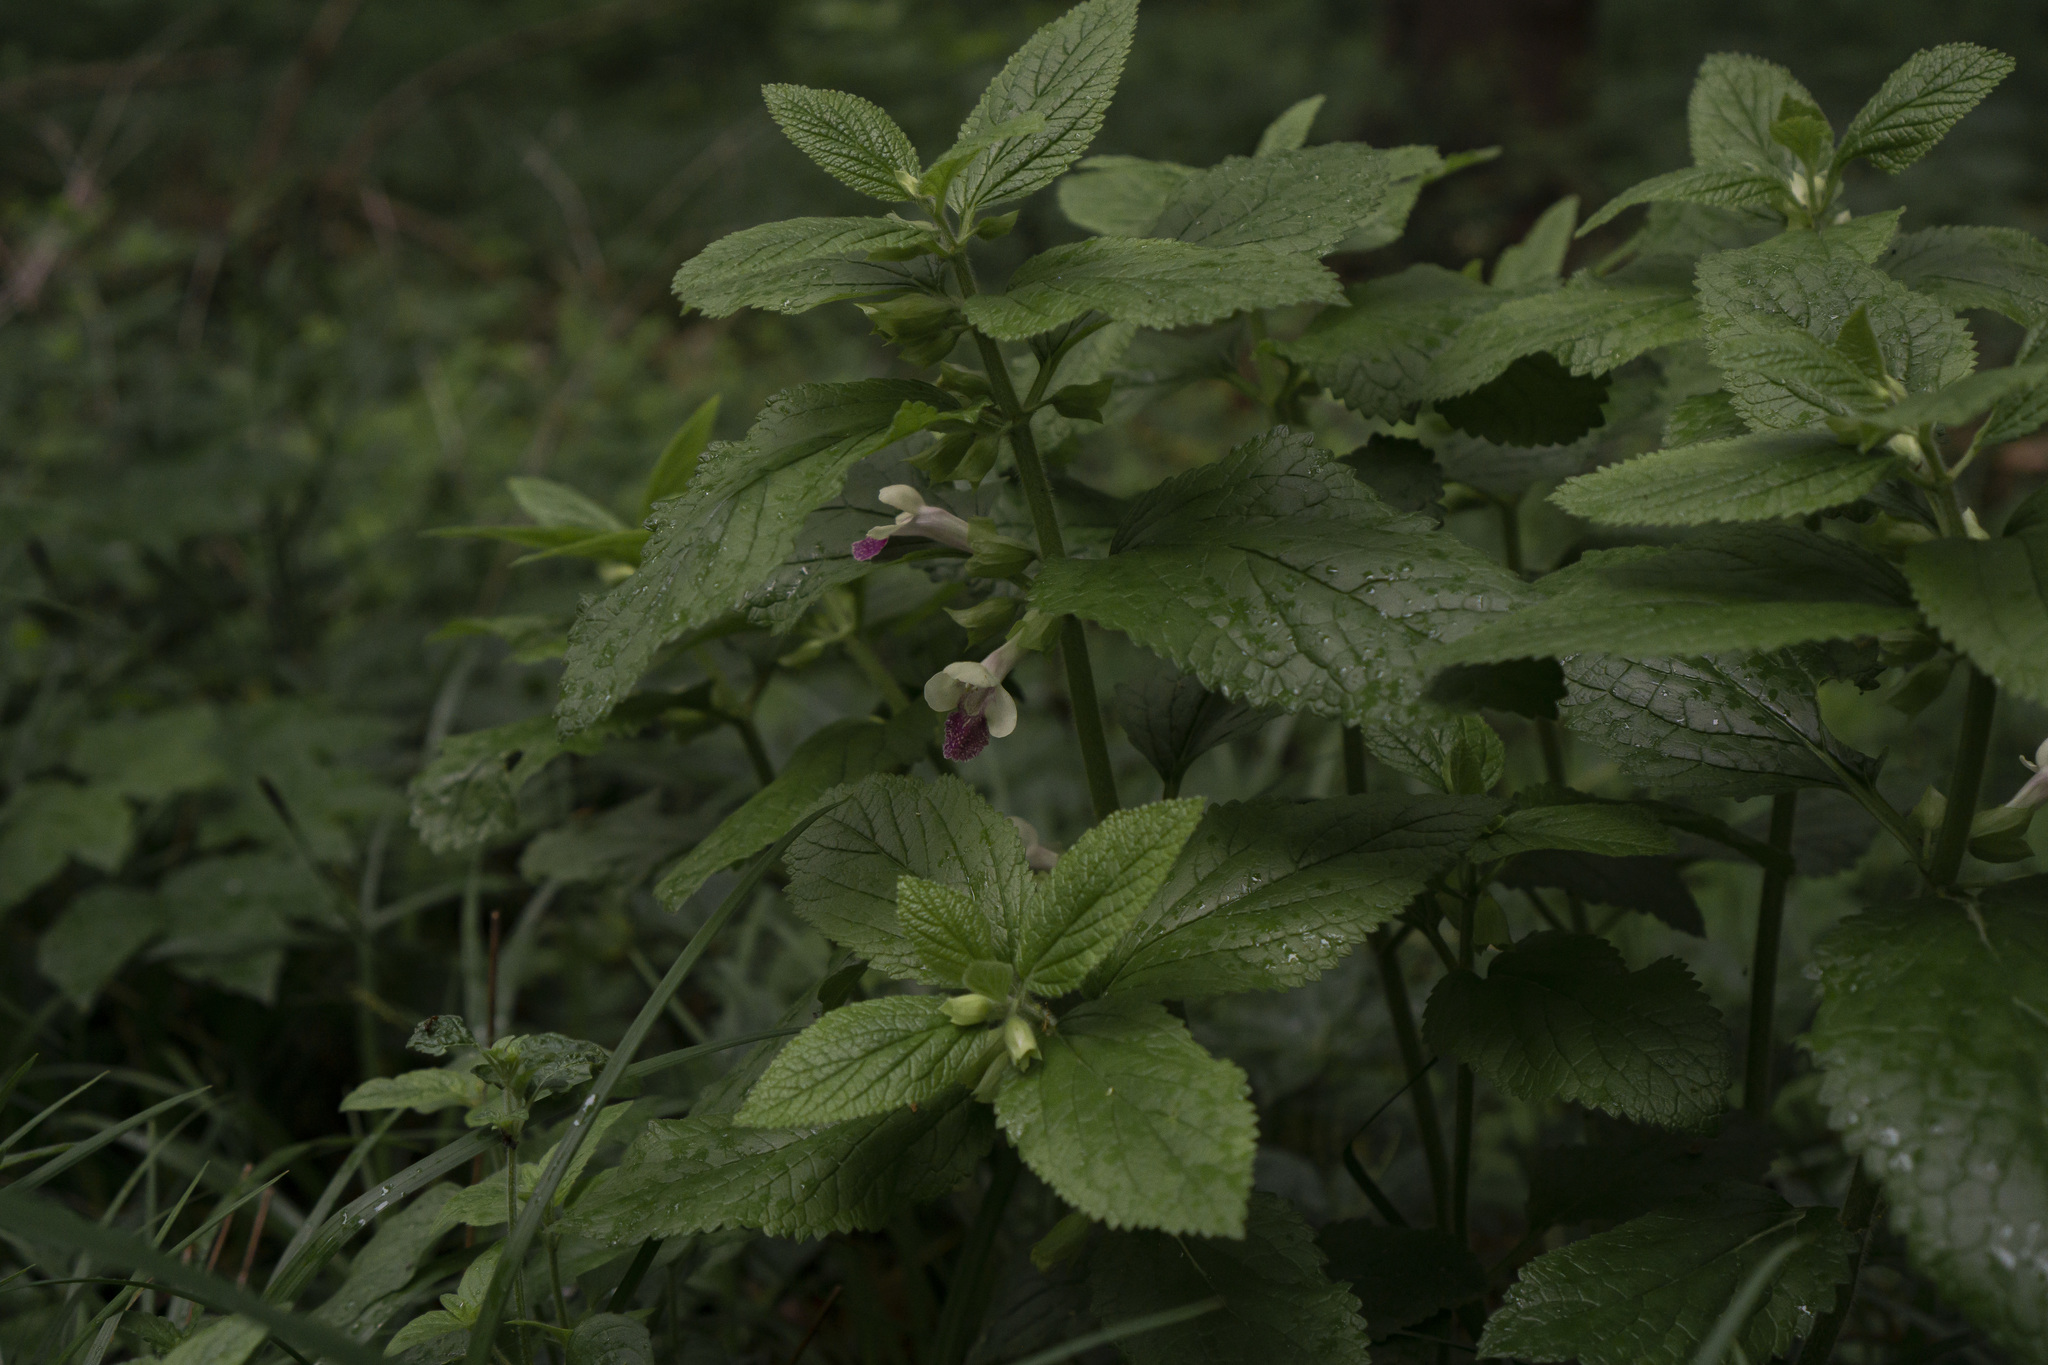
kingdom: Plantae
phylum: Tracheophyta
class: Magnoliopsida
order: Lamiales
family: Lamiaceae
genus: Melittis
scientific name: Melittis melissophyllum
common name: Bastard balm
